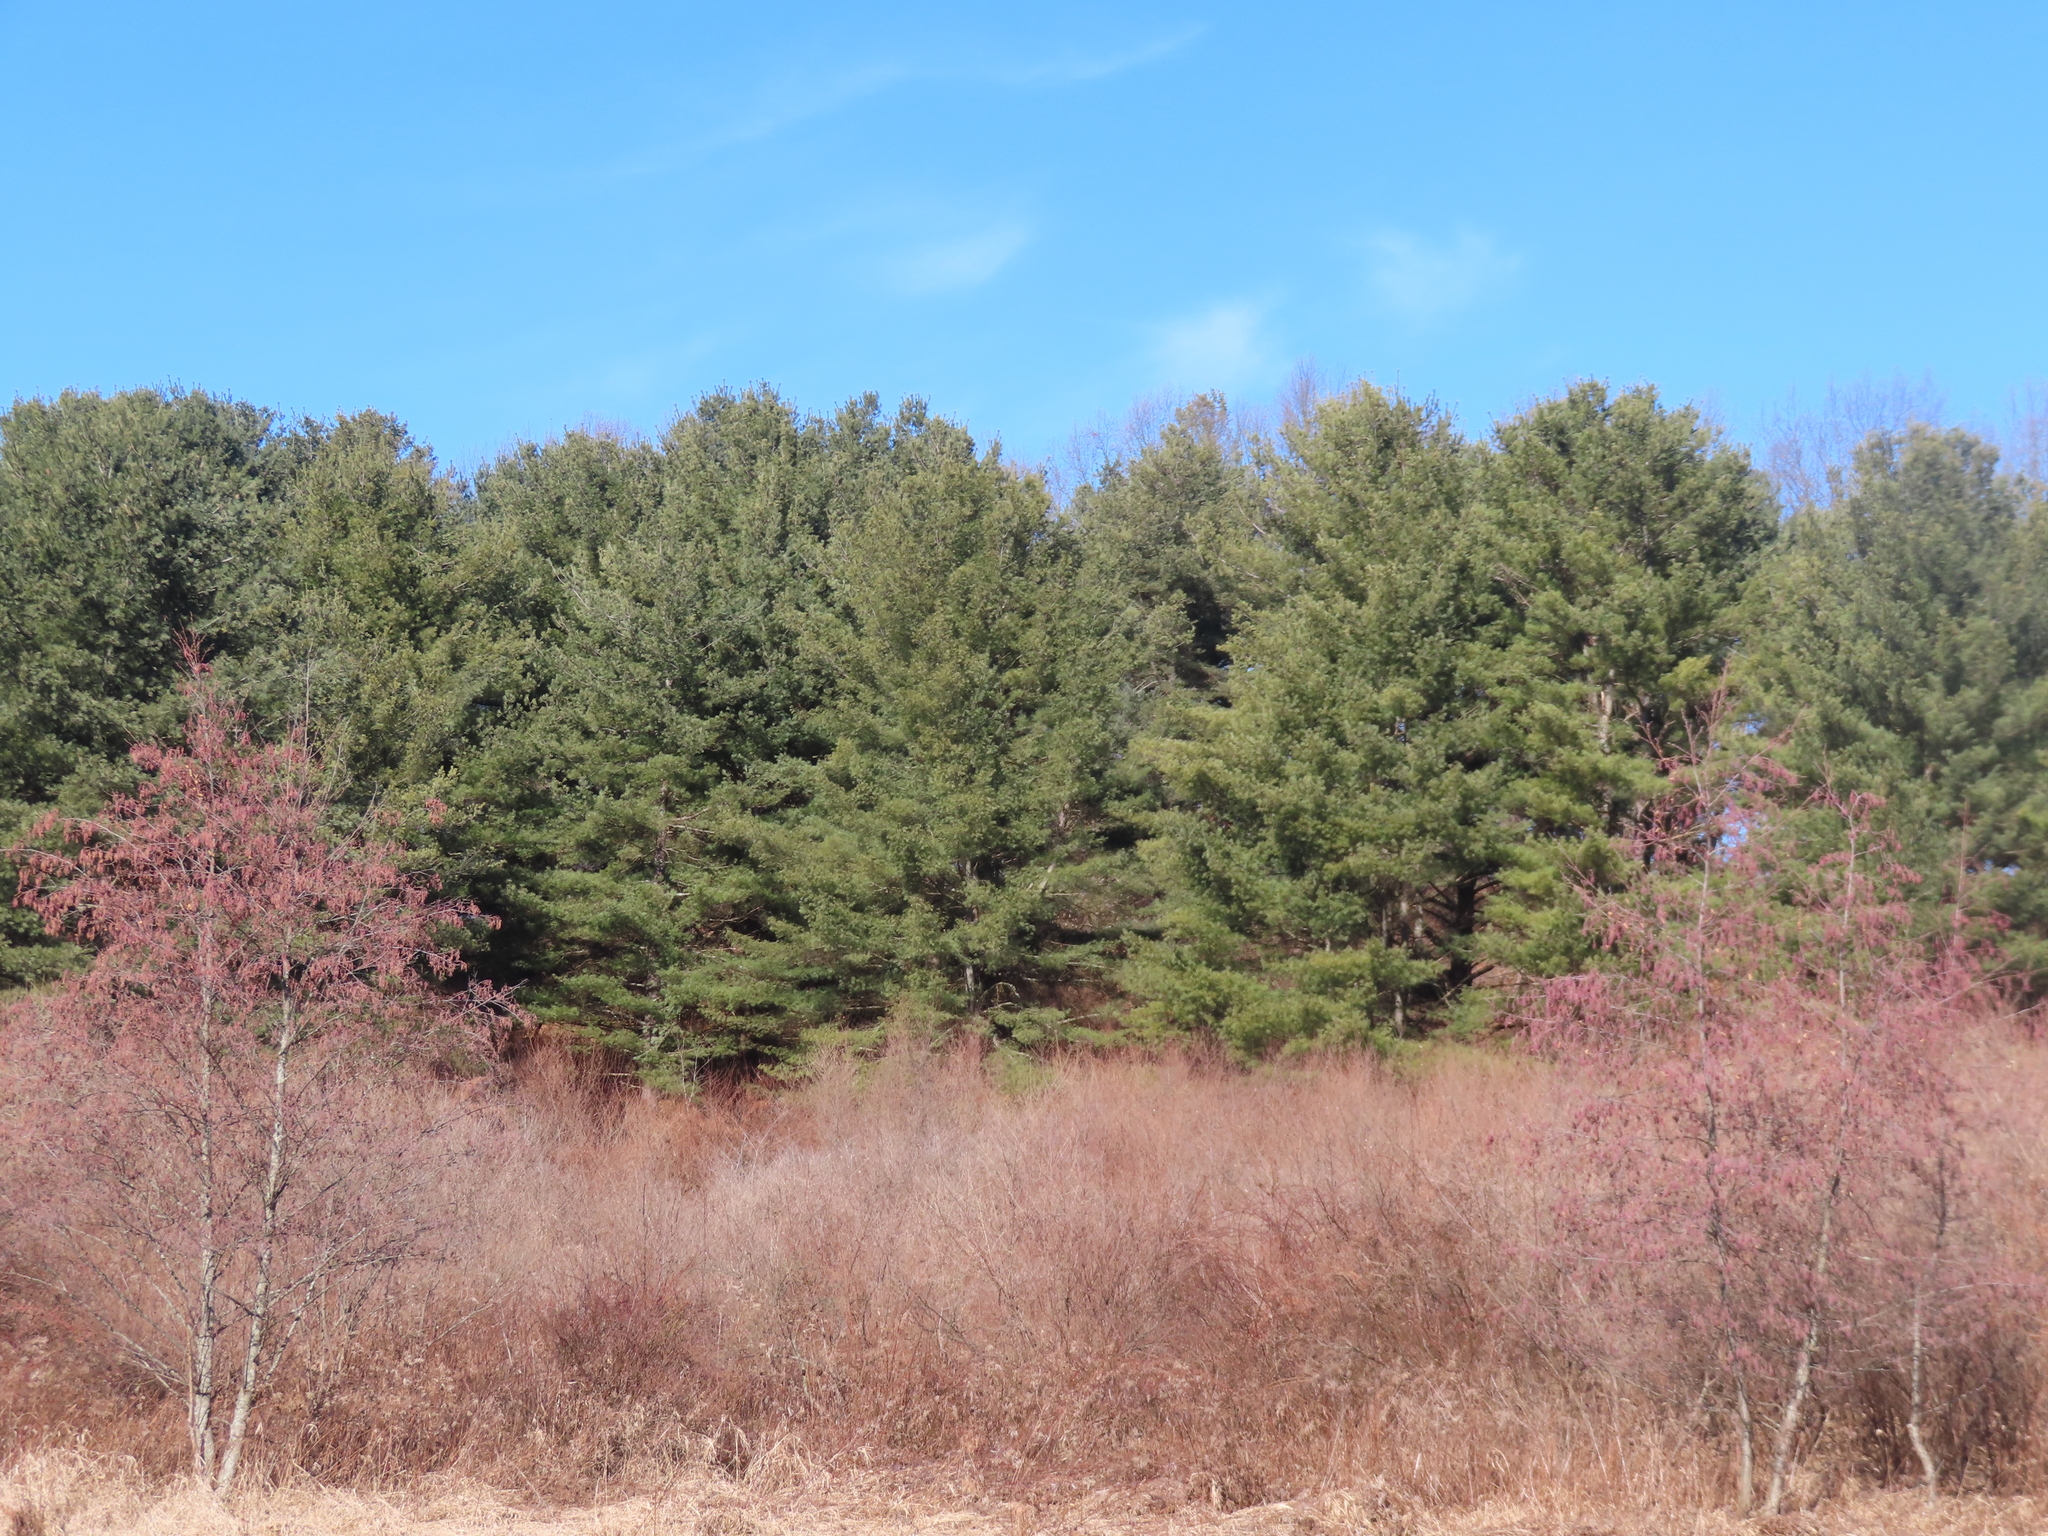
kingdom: Plantae
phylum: Tracheophyta
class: Pinopsida
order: Pinales
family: Pinaceae
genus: Pinus
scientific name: Pinus strobus
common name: Weymouth pine
